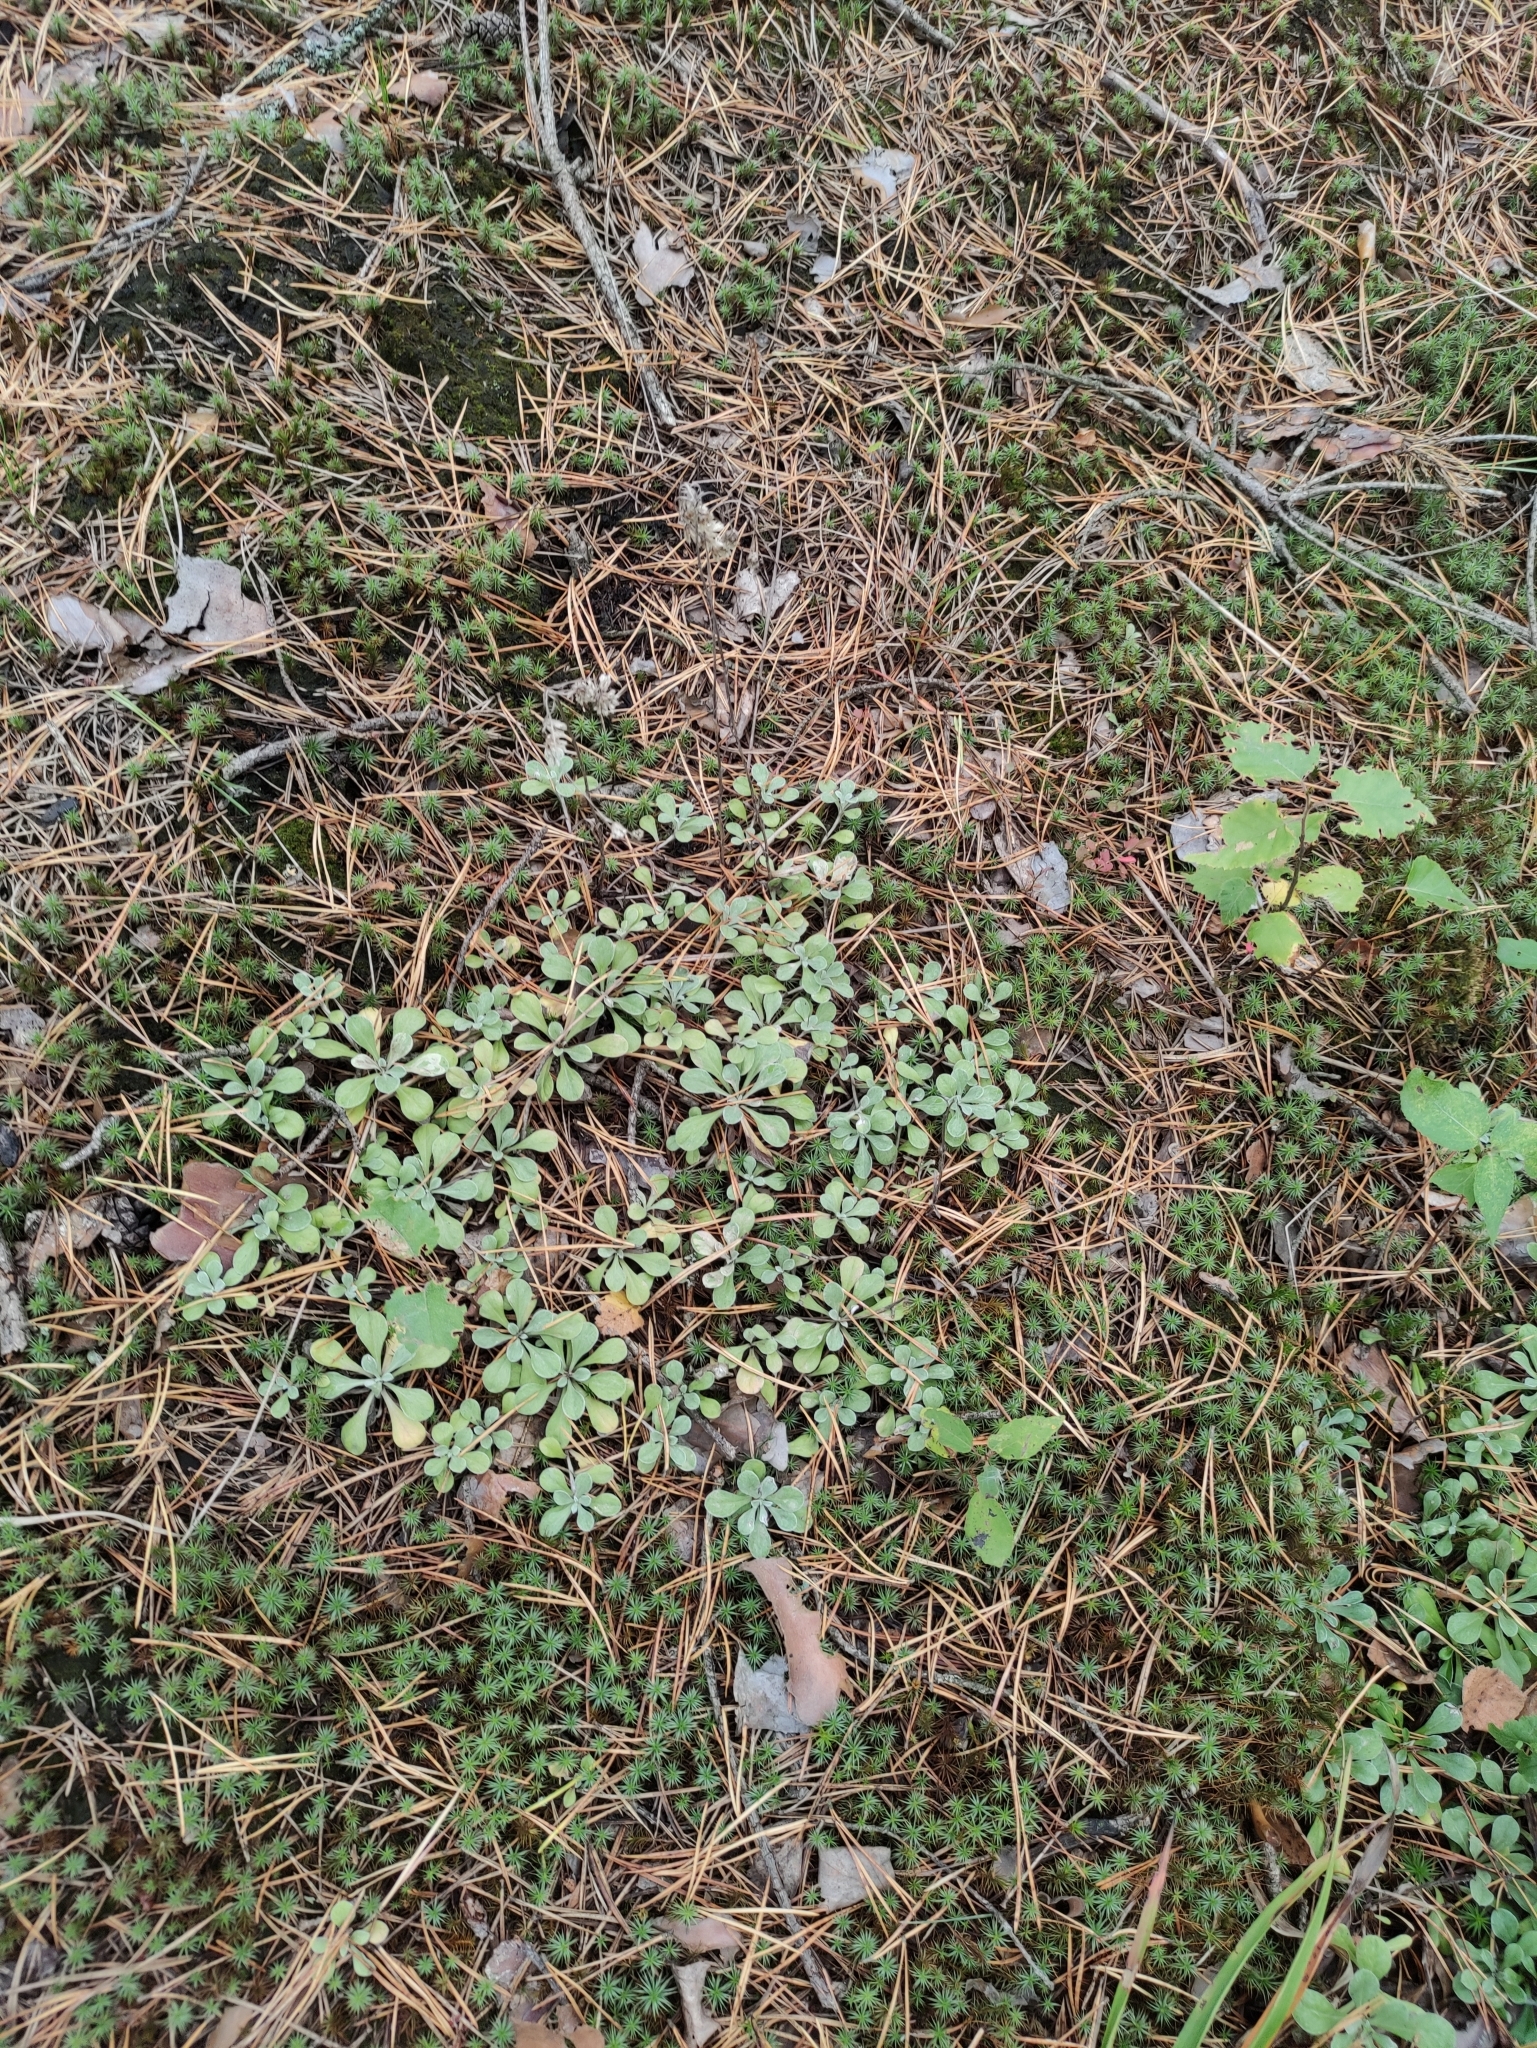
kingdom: Plantae
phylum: Tracheophyta
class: Magnoliopsida
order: Asterales
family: Asteraceae
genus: Antennaria
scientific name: Antennaria dioica
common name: Mountain everlasting
